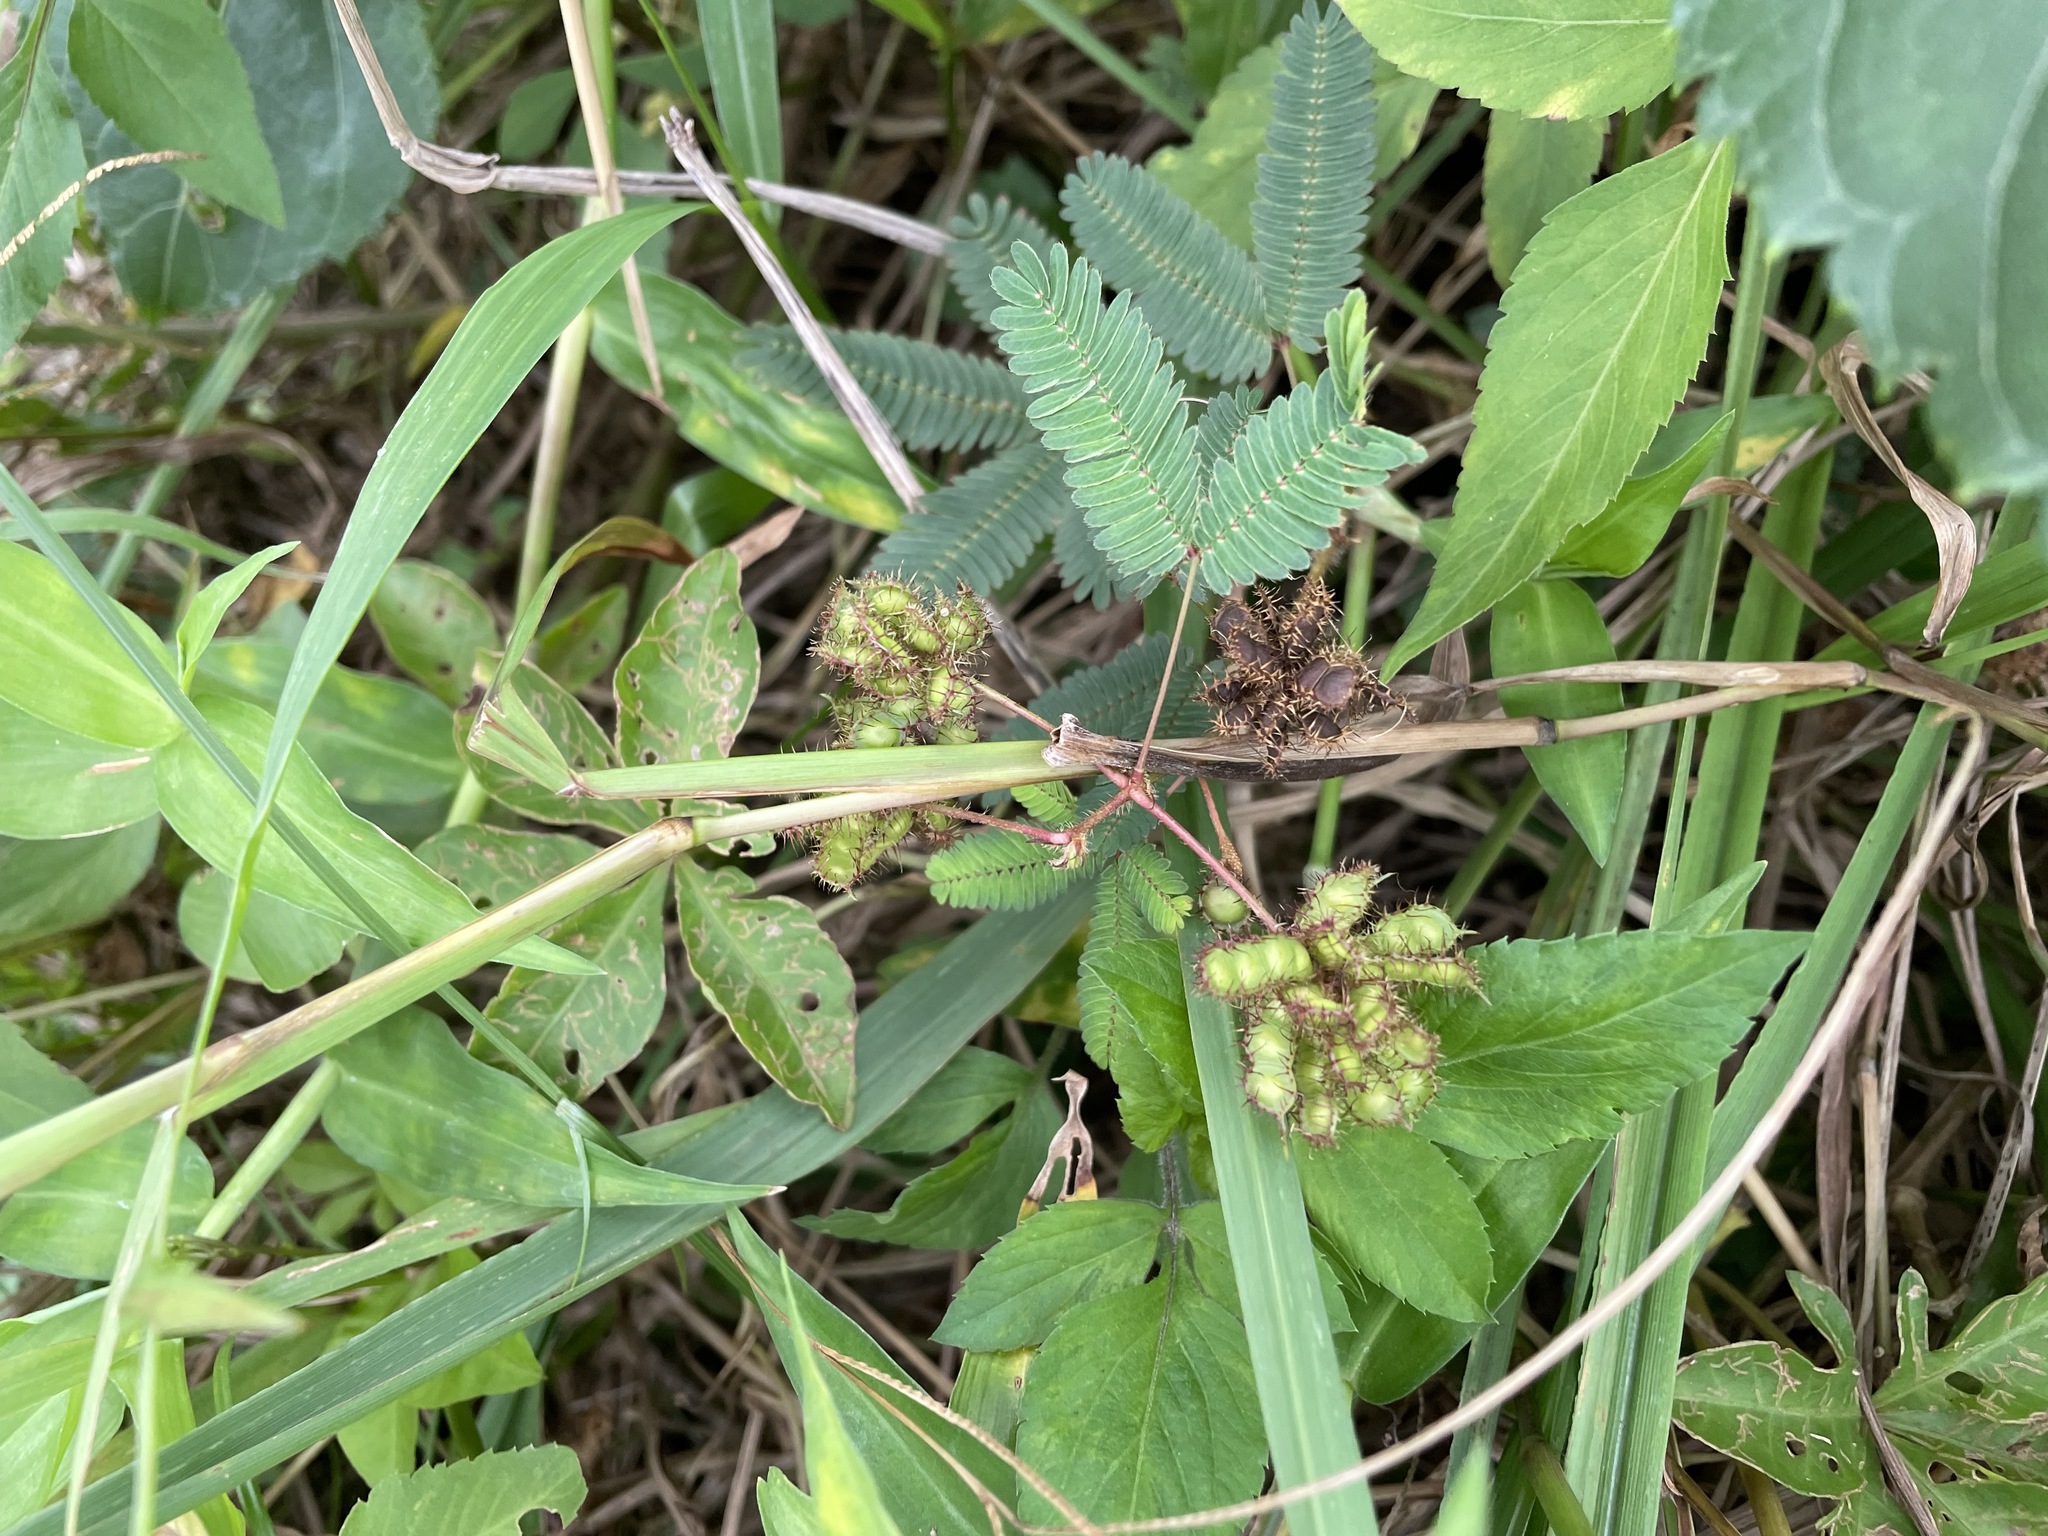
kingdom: Plantae
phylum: Tracheophyta
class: Magnoliopsida
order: Fabales
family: Fabaceae
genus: Mimosa
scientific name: Mimosa pudica
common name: Sensitive plant
